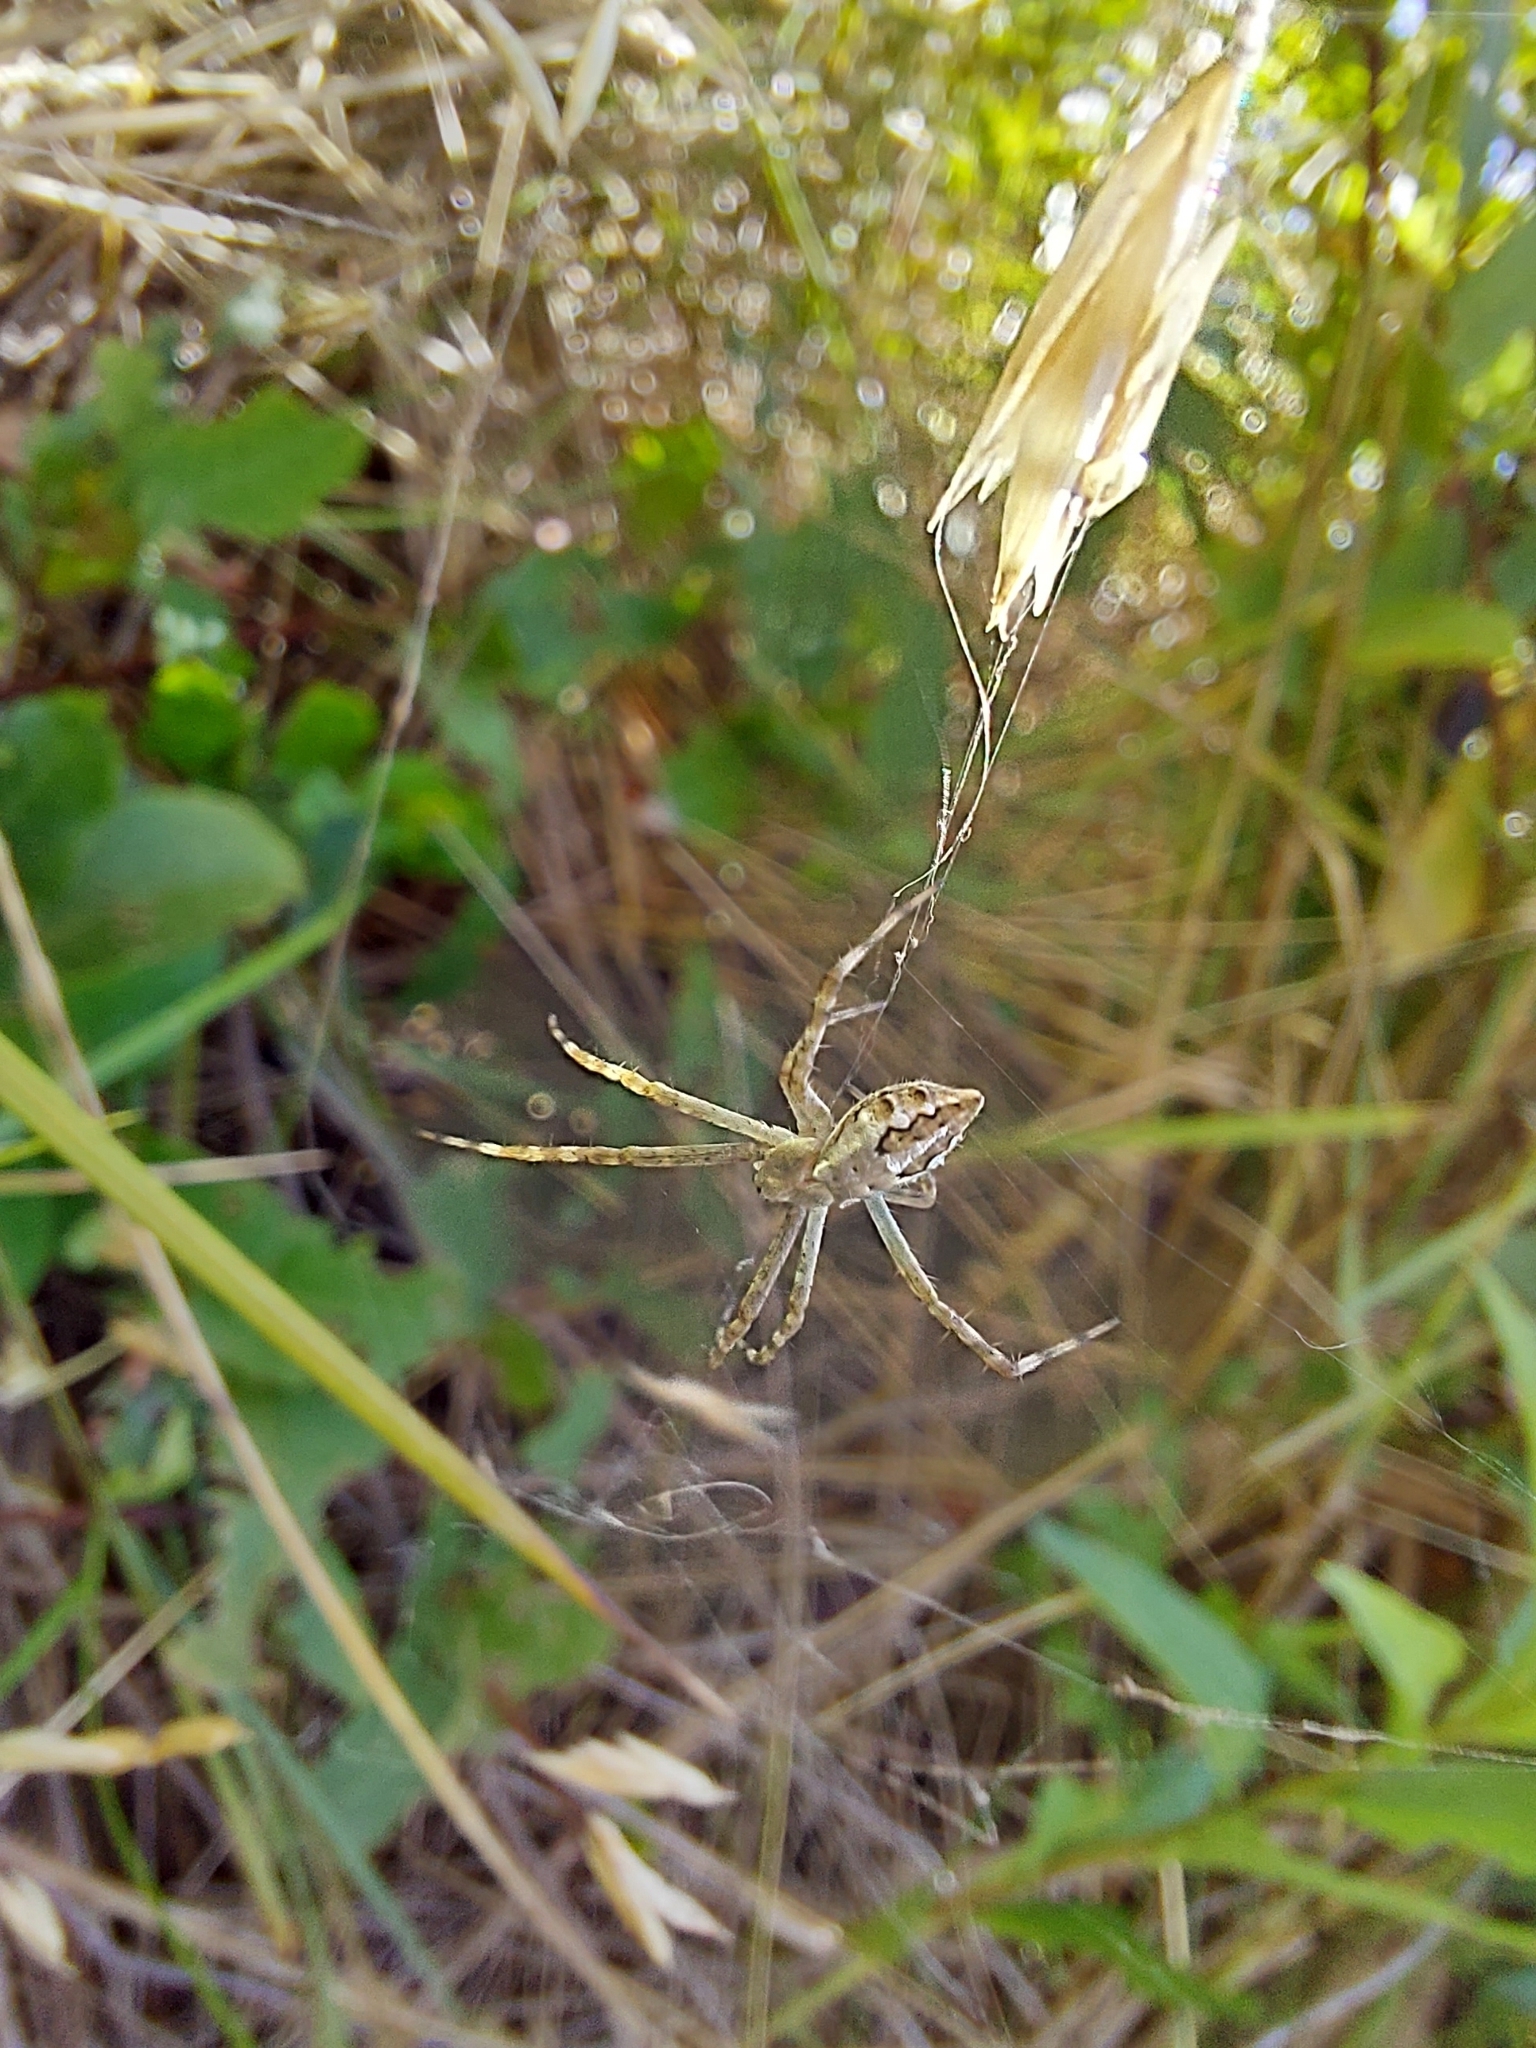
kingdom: Animalia
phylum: Arthropoda
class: Arachnida
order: Araneae
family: Araneidae
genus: Argiope
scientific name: Argiope argentata
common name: Orb weavers
